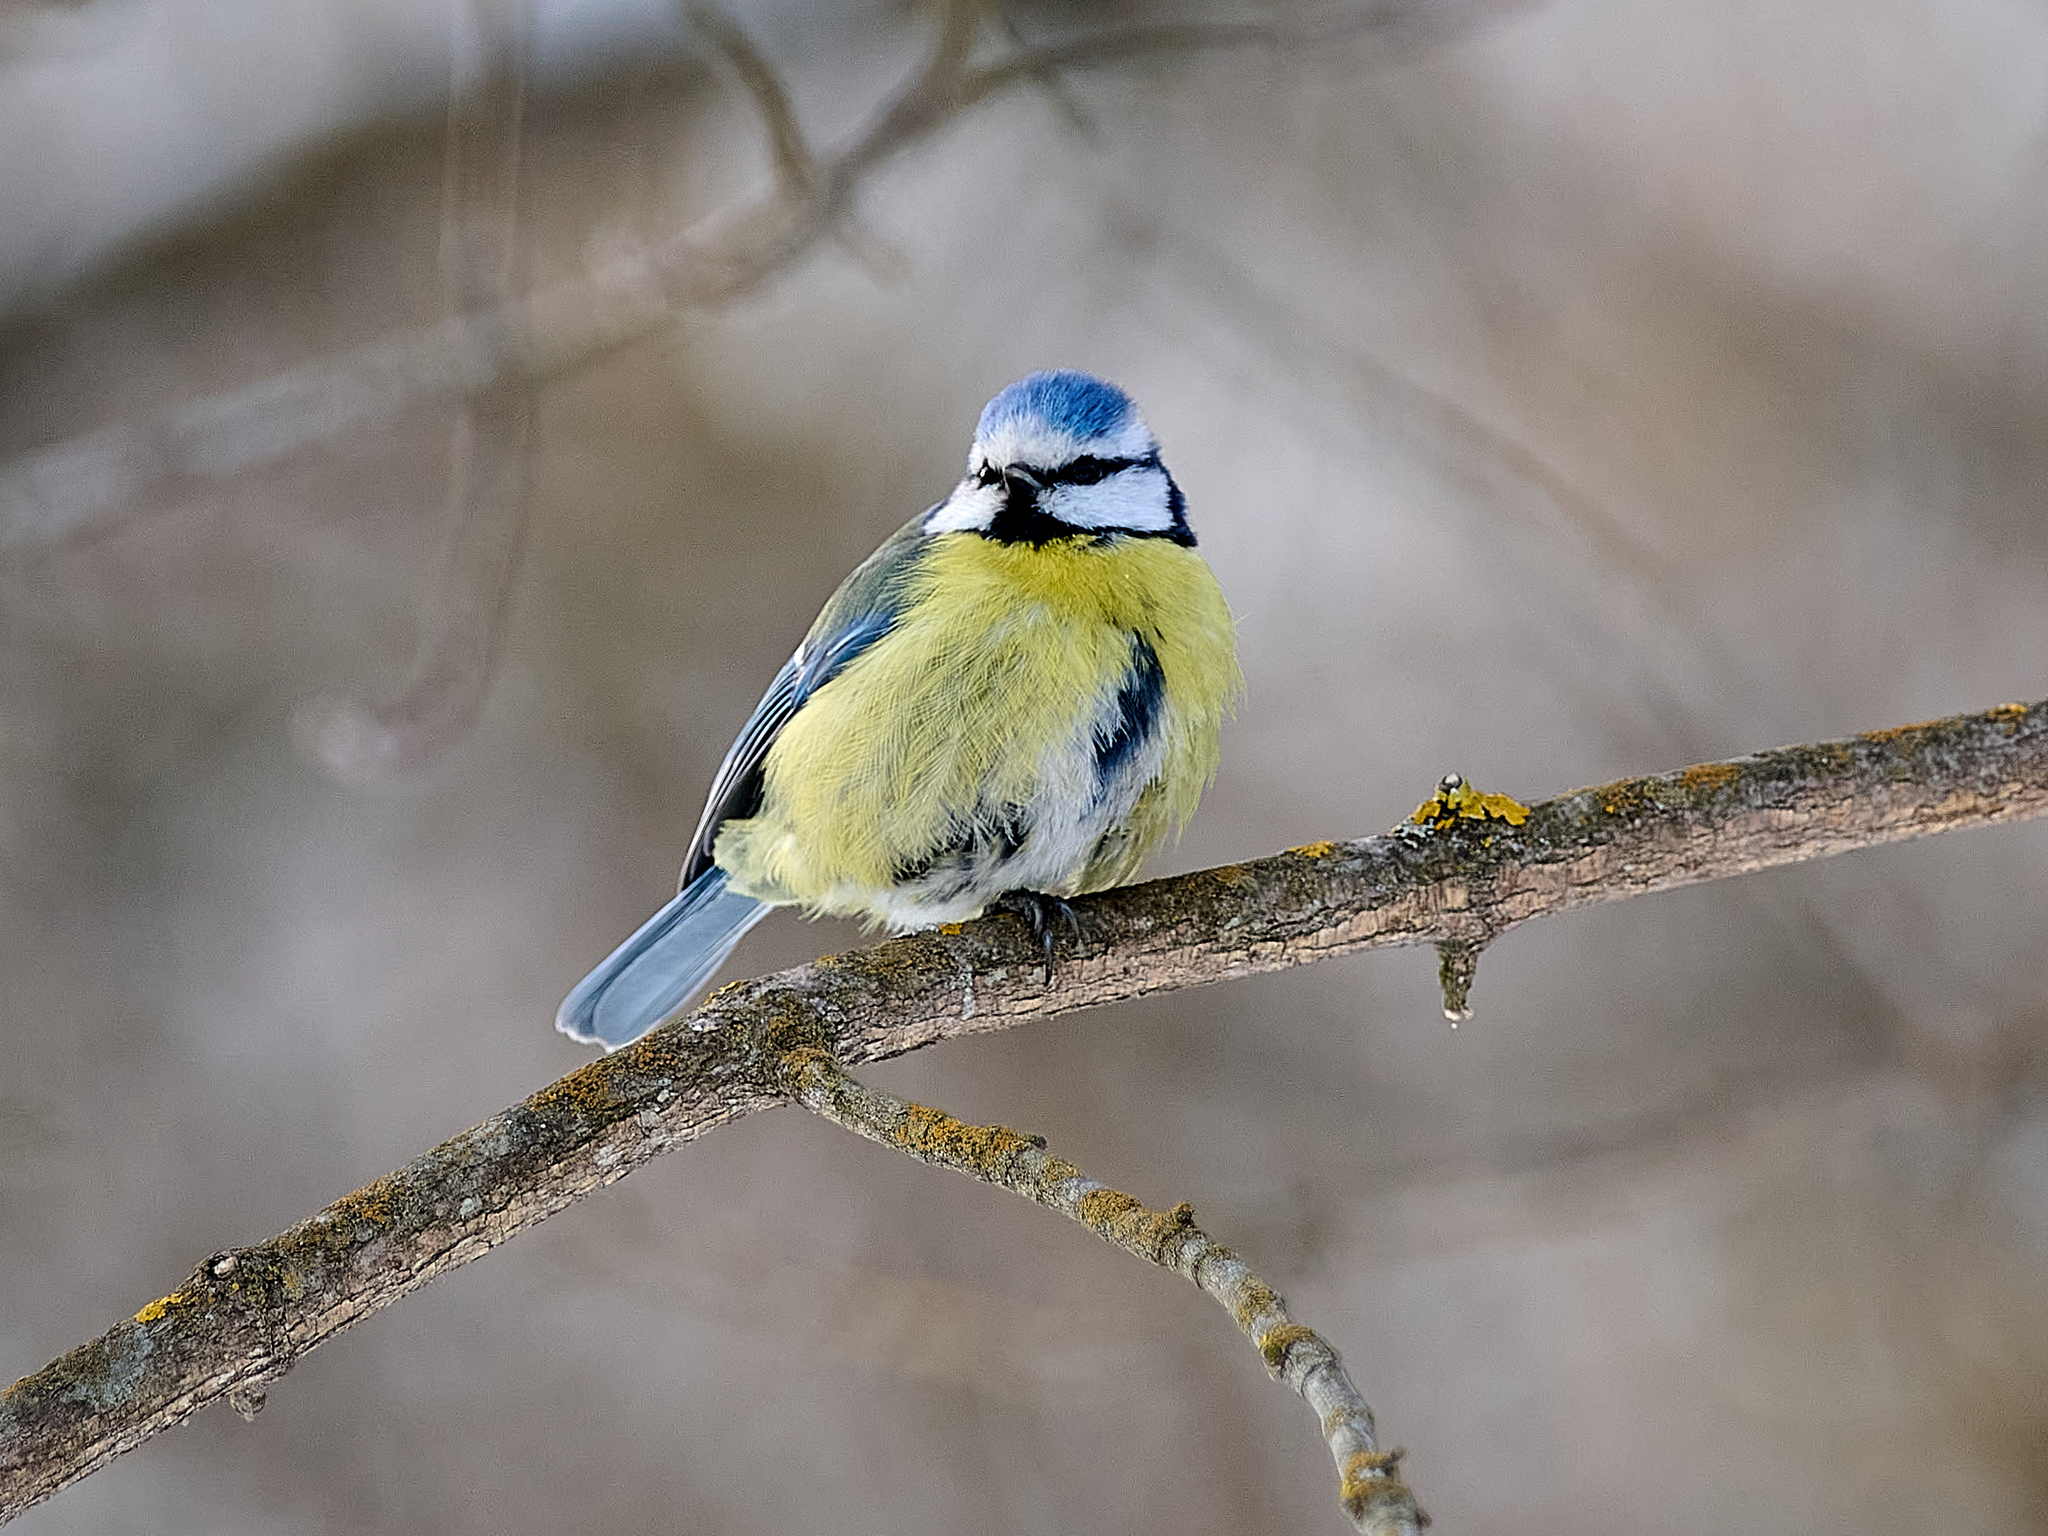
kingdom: Animalia
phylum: Chordata
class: Aves
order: Passeriformes
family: Paridae
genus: Cyanistes
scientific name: Cyanistes caeruleus
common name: Eurasian blue tit
